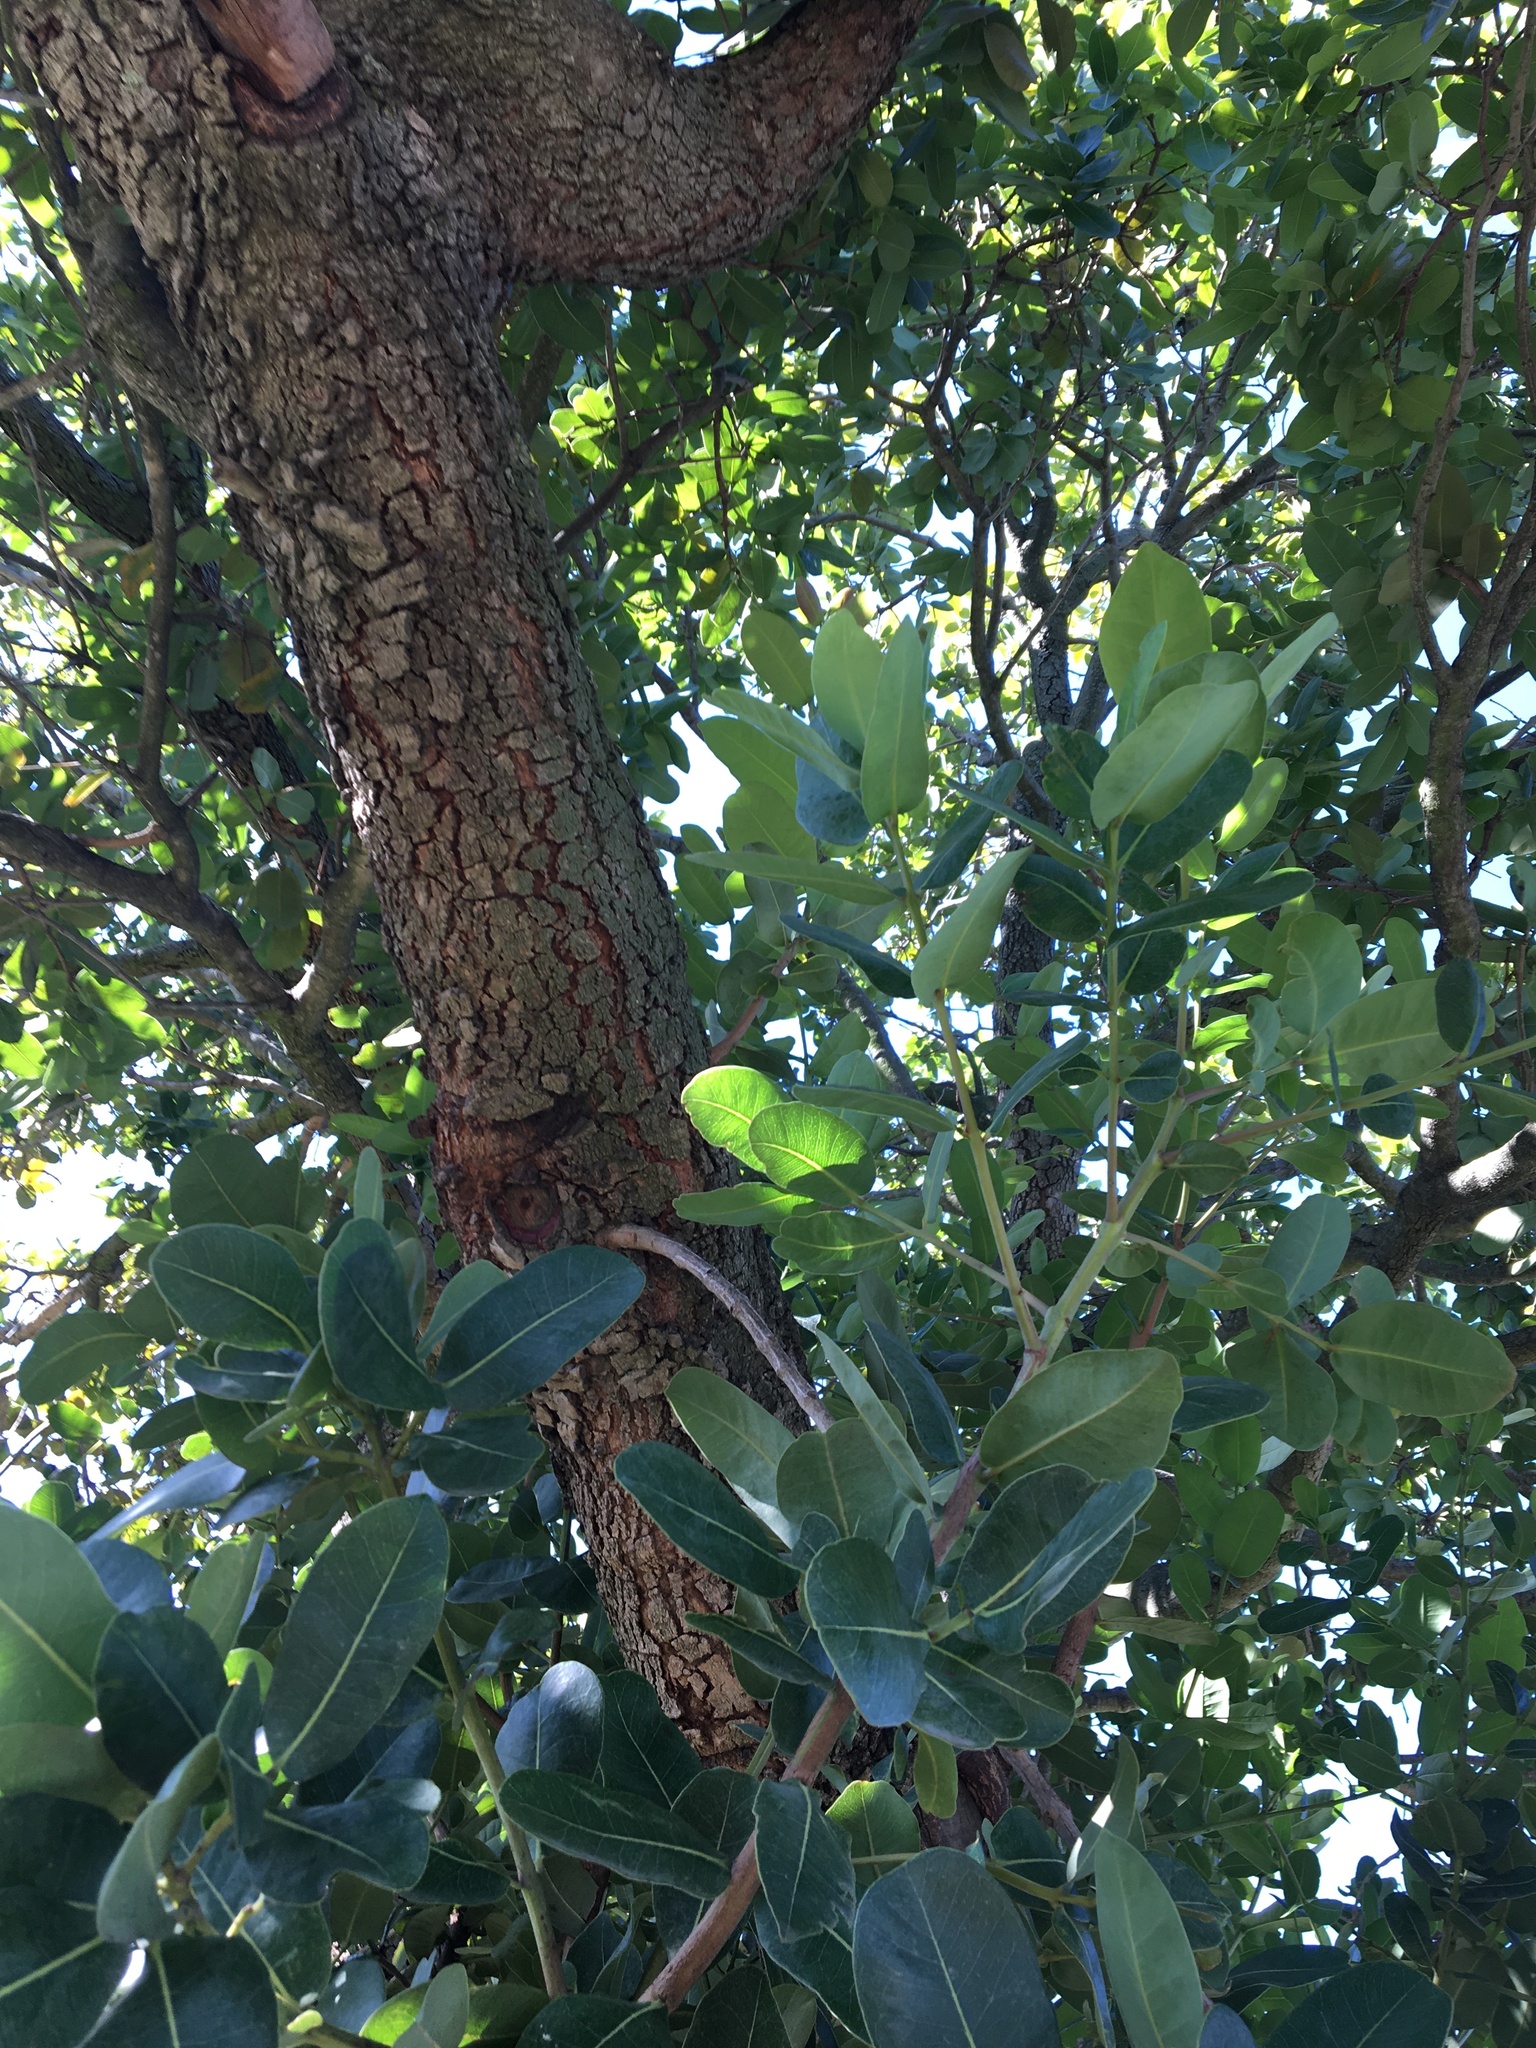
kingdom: Plantae
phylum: Tracheophyta
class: Magnoliopsida
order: Myrtales
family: Myrtaceae
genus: Syzygium
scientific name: Syzygium cordatum
